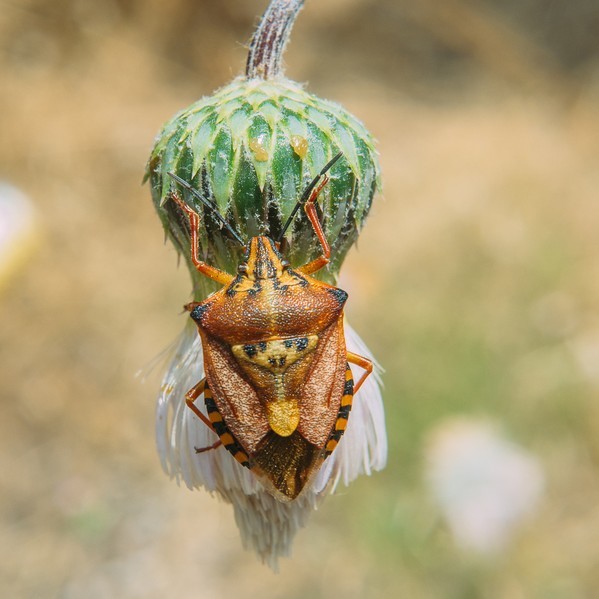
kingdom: Animalia
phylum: Arthropoda
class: Insecta
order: Hemiptera
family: Pentatomidae
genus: Carpocoris
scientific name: Carpocoris mediterraneus
